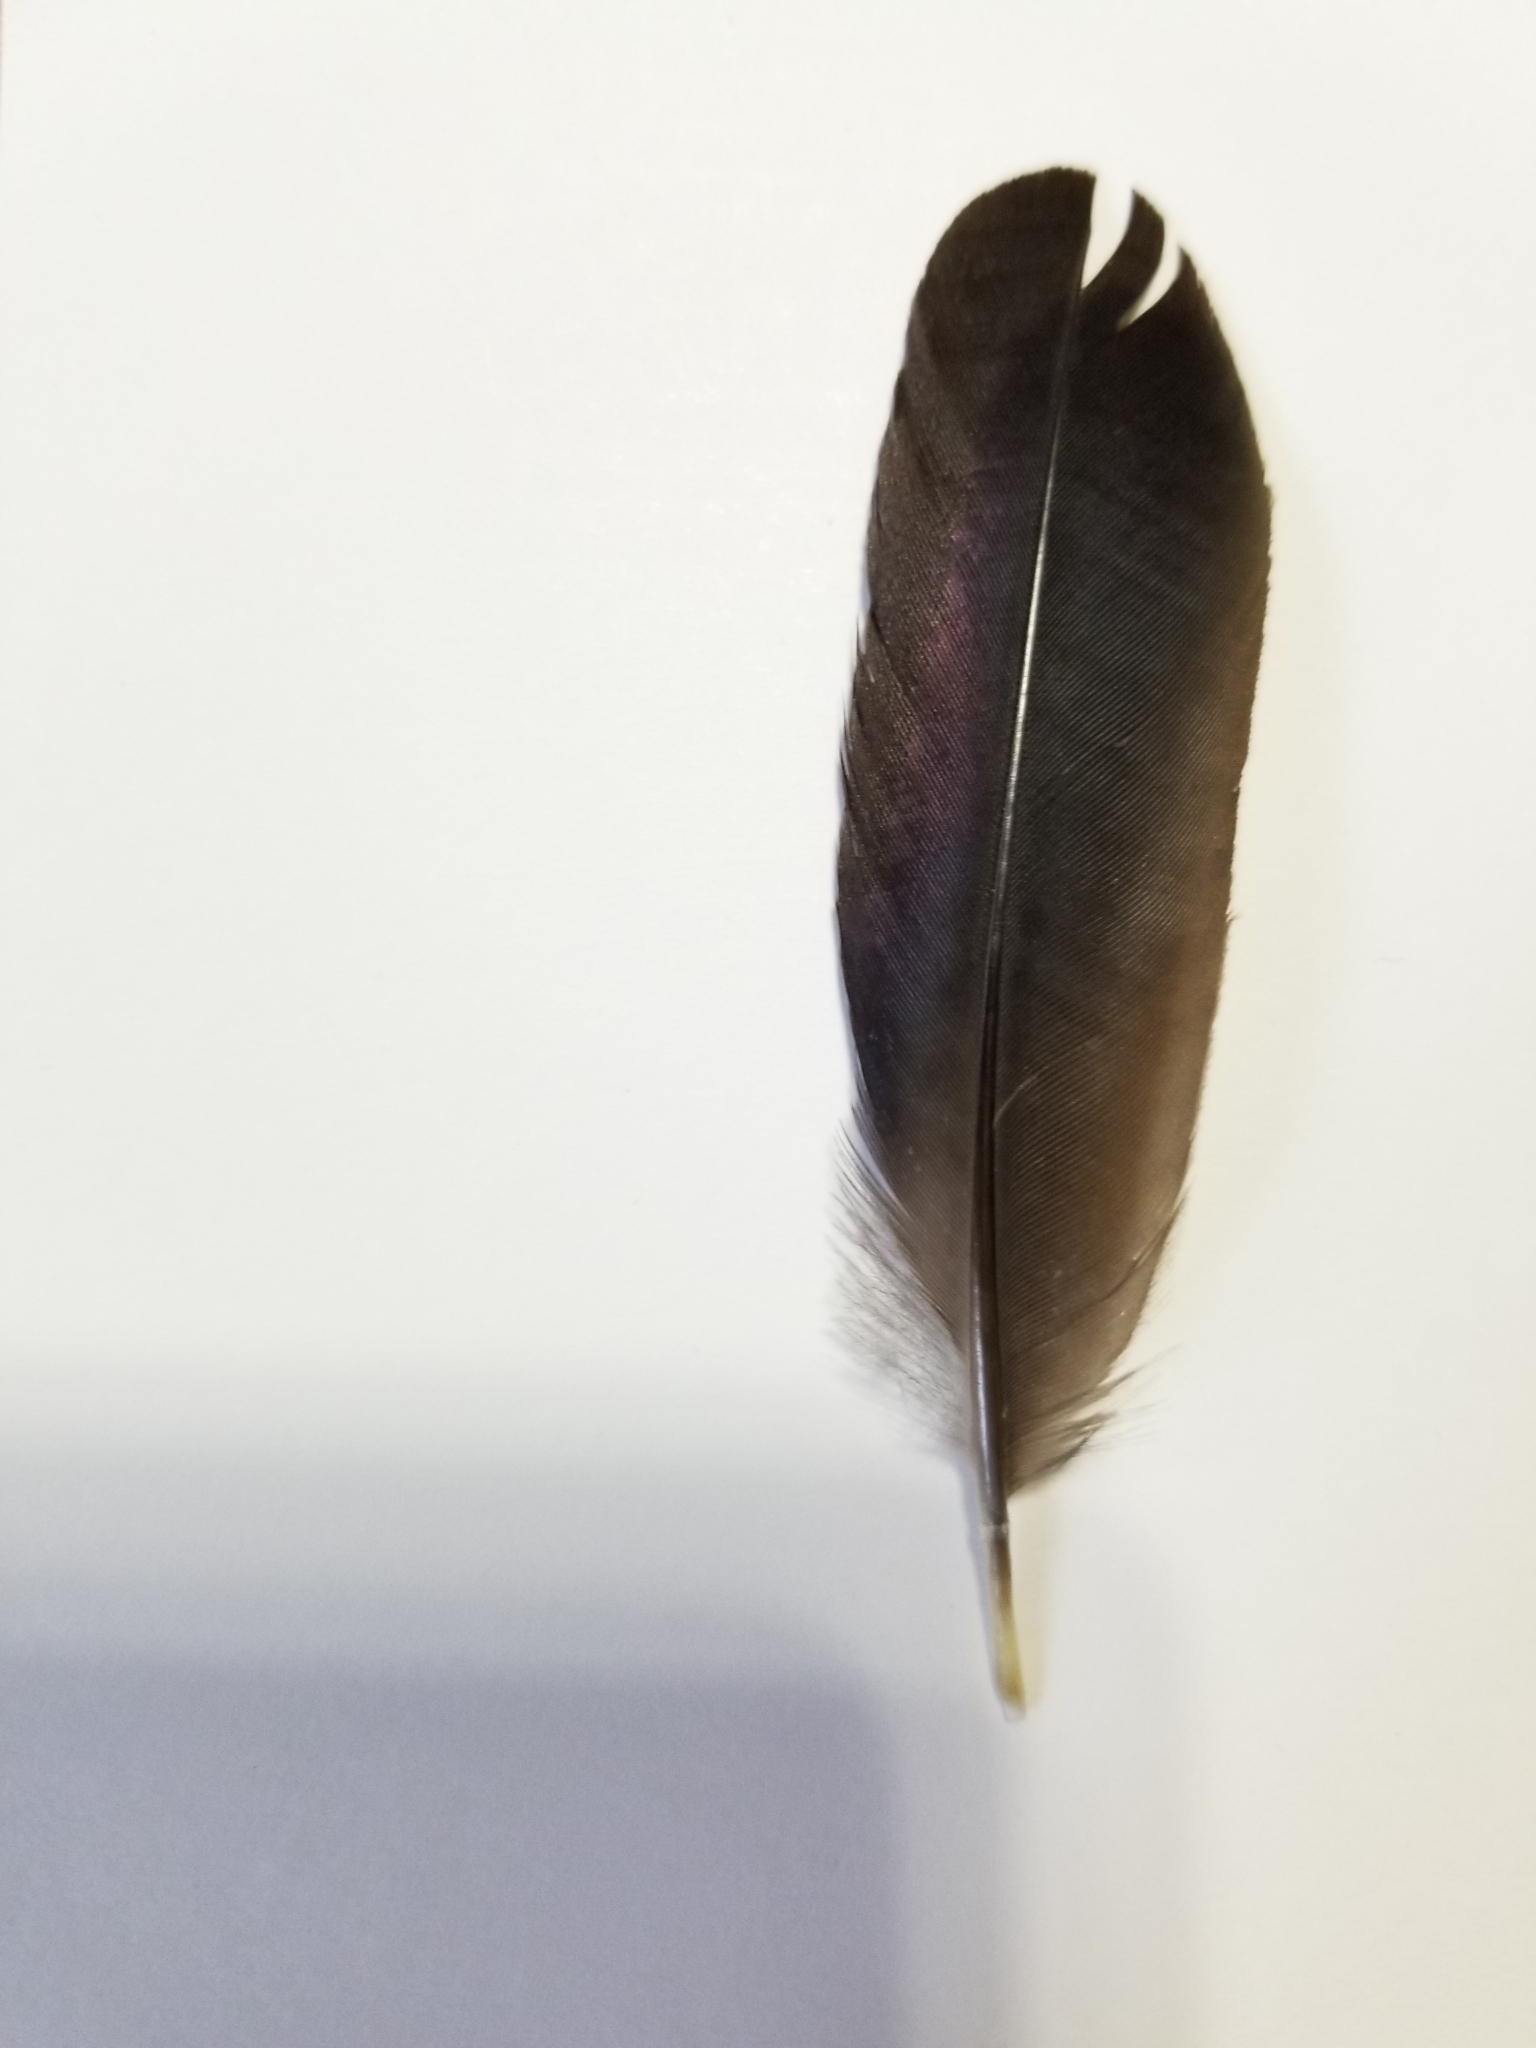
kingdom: Animalia
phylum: Chordata
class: Aves
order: Passeriformes
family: Icteridae
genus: Quiscalus
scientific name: Quiscalus quiscula
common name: Common grackle
